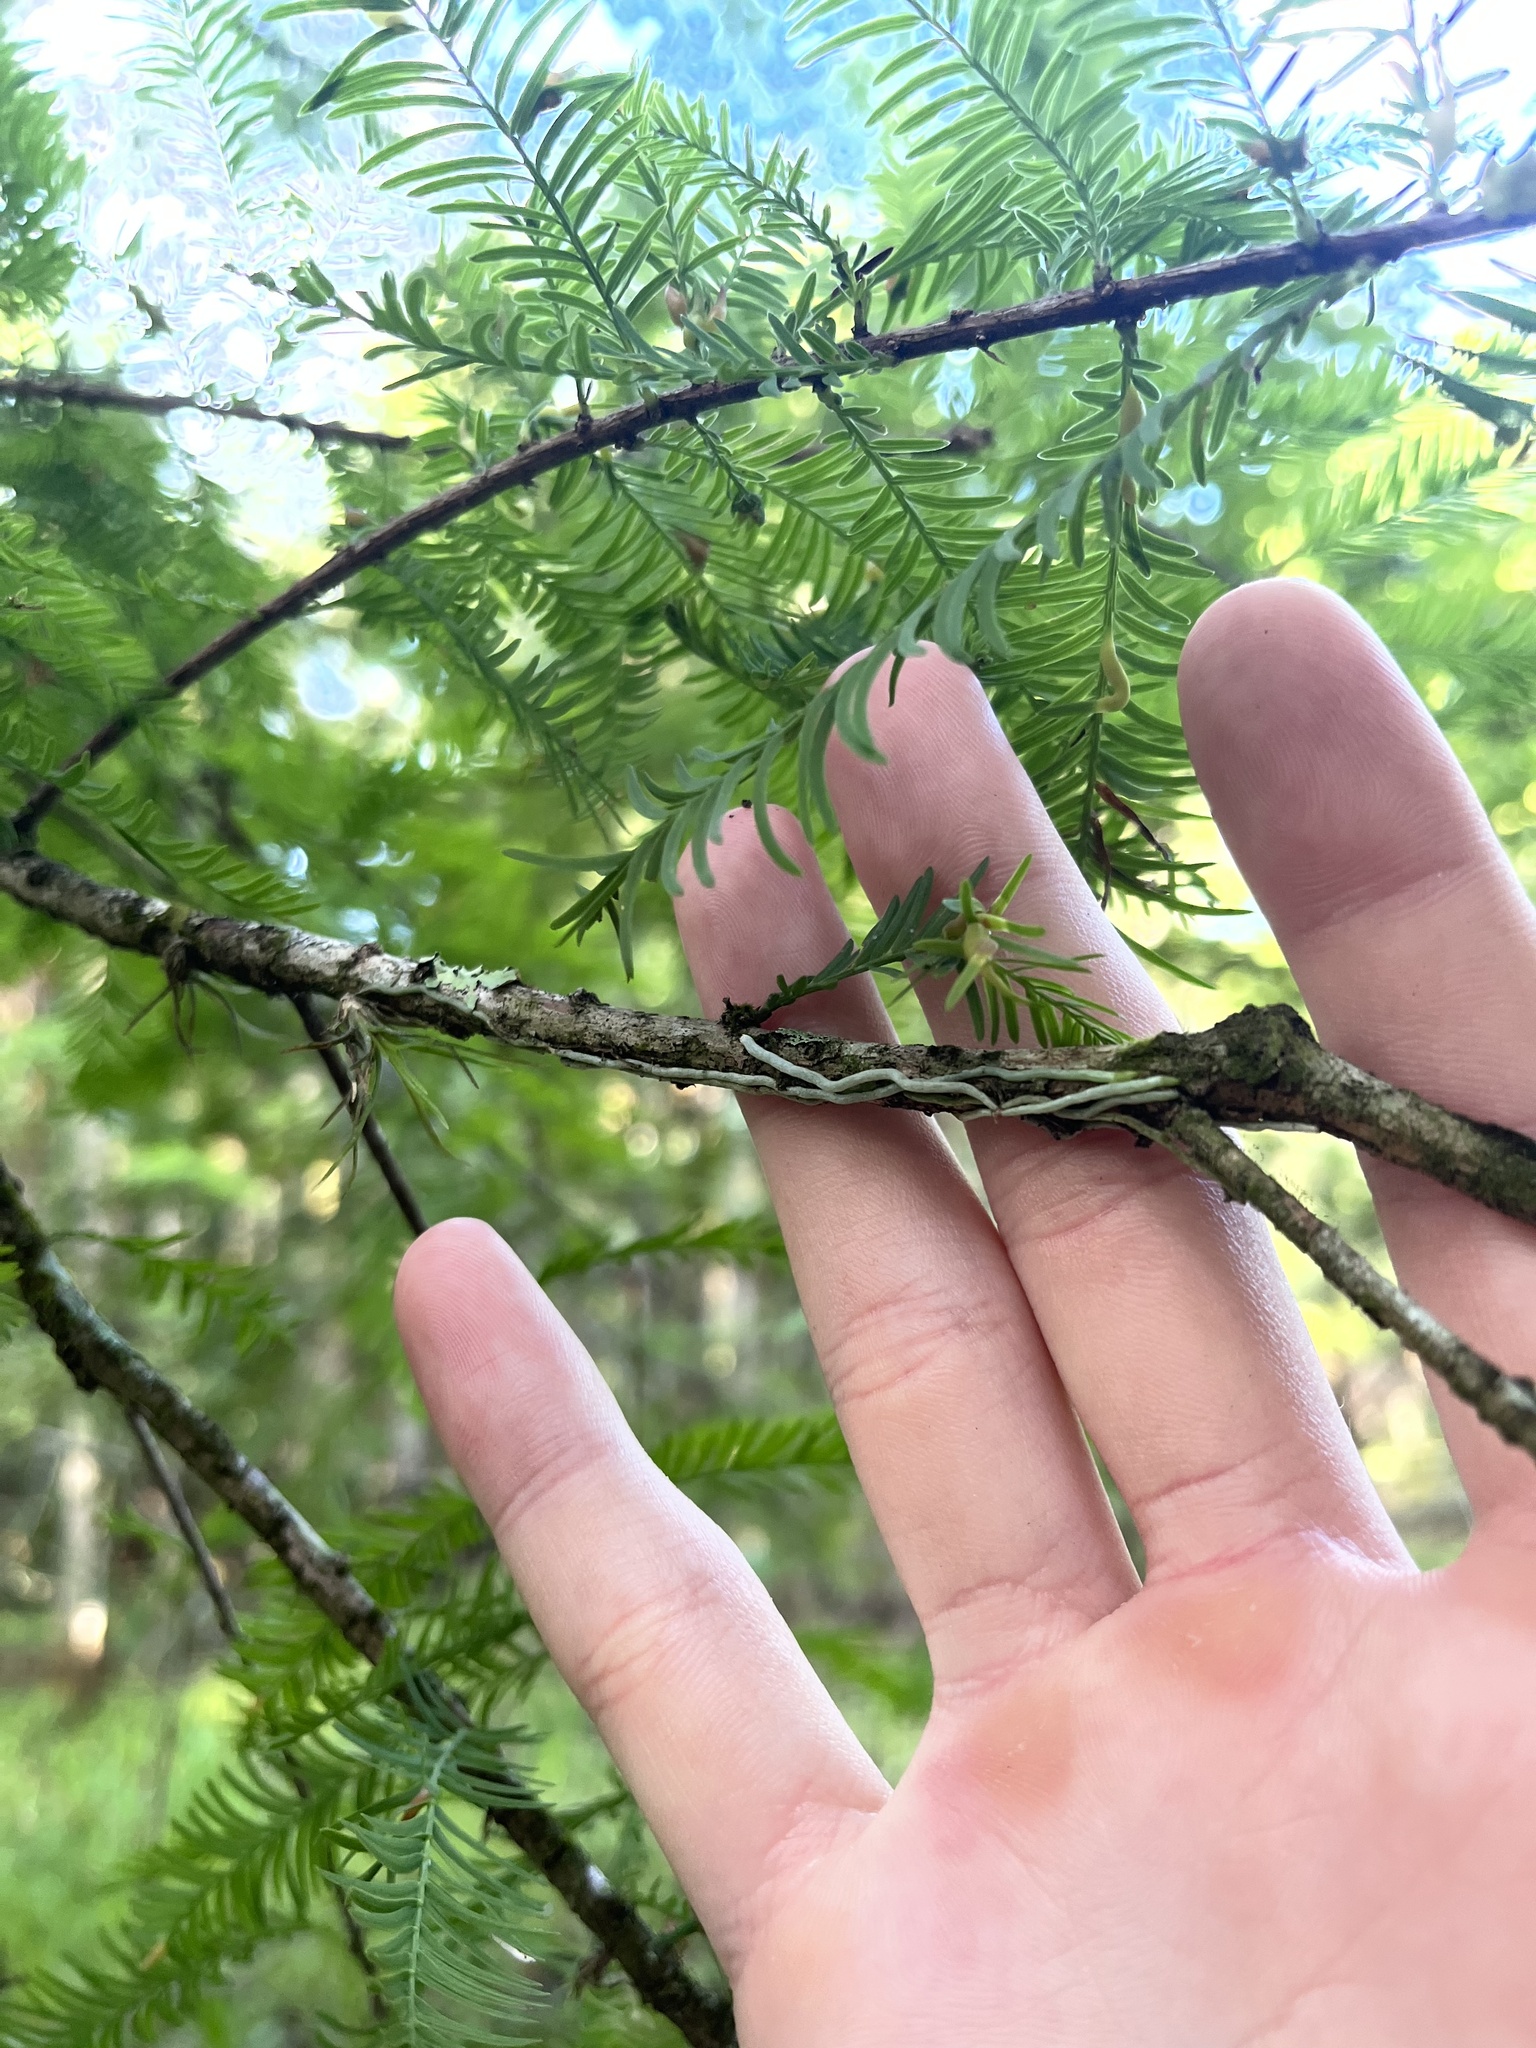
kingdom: Plantae
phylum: Tracheophyta
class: Liliopsida
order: Asparagales
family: Orchidaceae
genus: Dendrophylax
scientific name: Dendrophylax porrectus
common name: Needleroot airplant orchid
